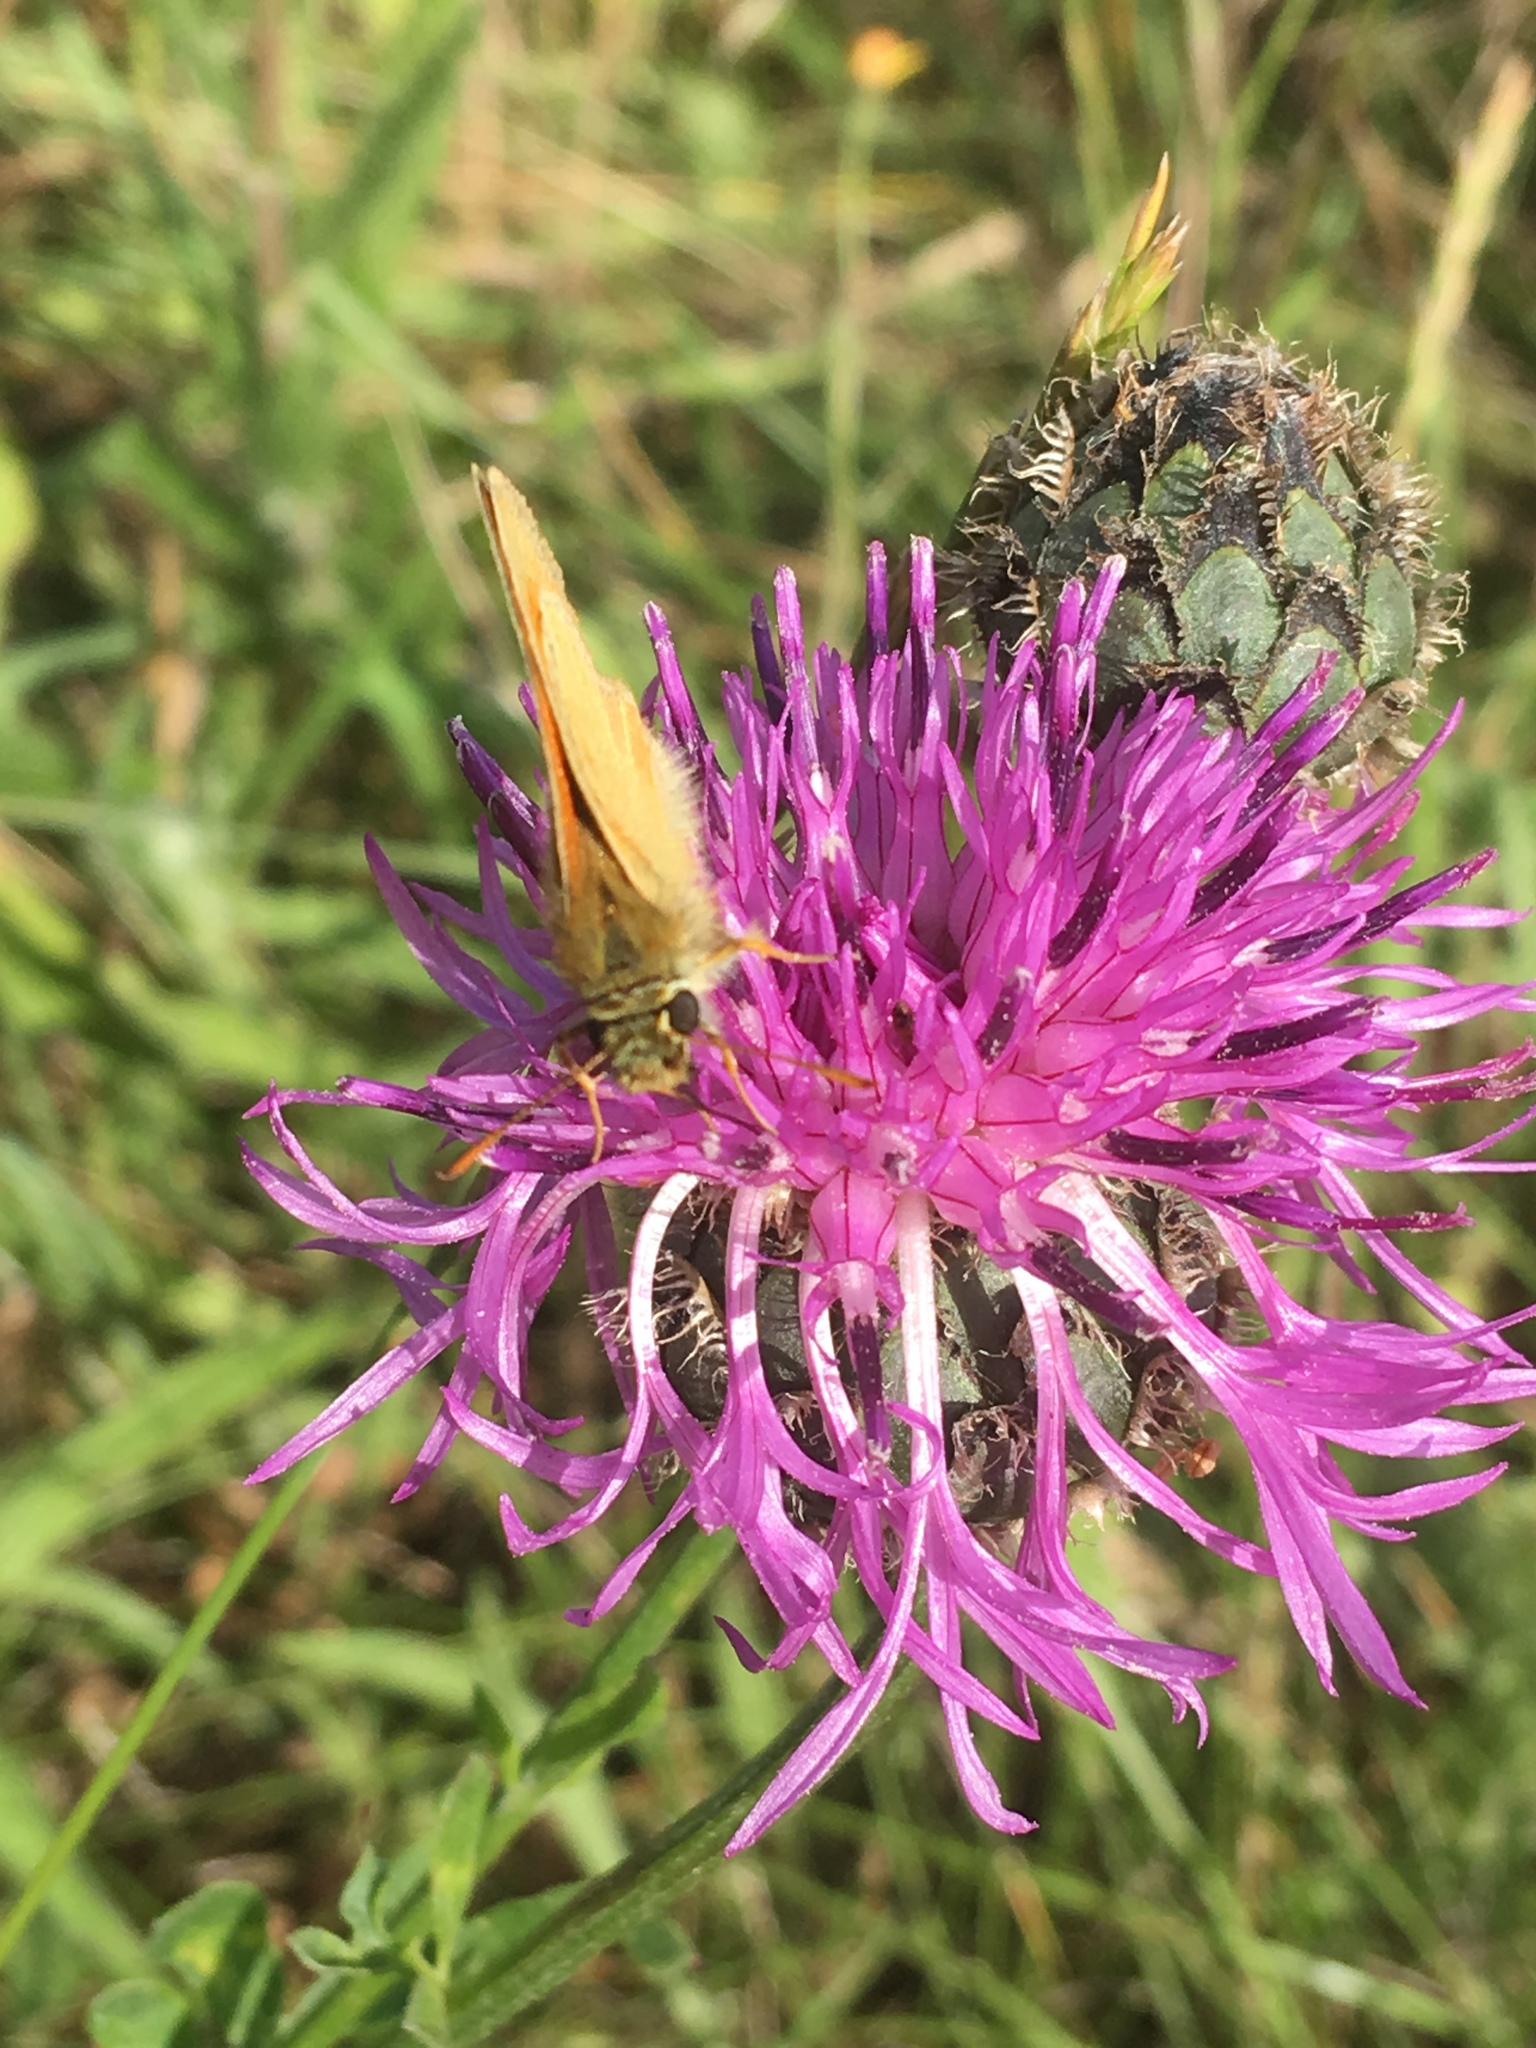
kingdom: Animalia
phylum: Arthropoda
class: Insecta
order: Lepidoptera
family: Hesperiidae
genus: Thymelicus
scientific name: Thymelicus sylvestris
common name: Small skipper
